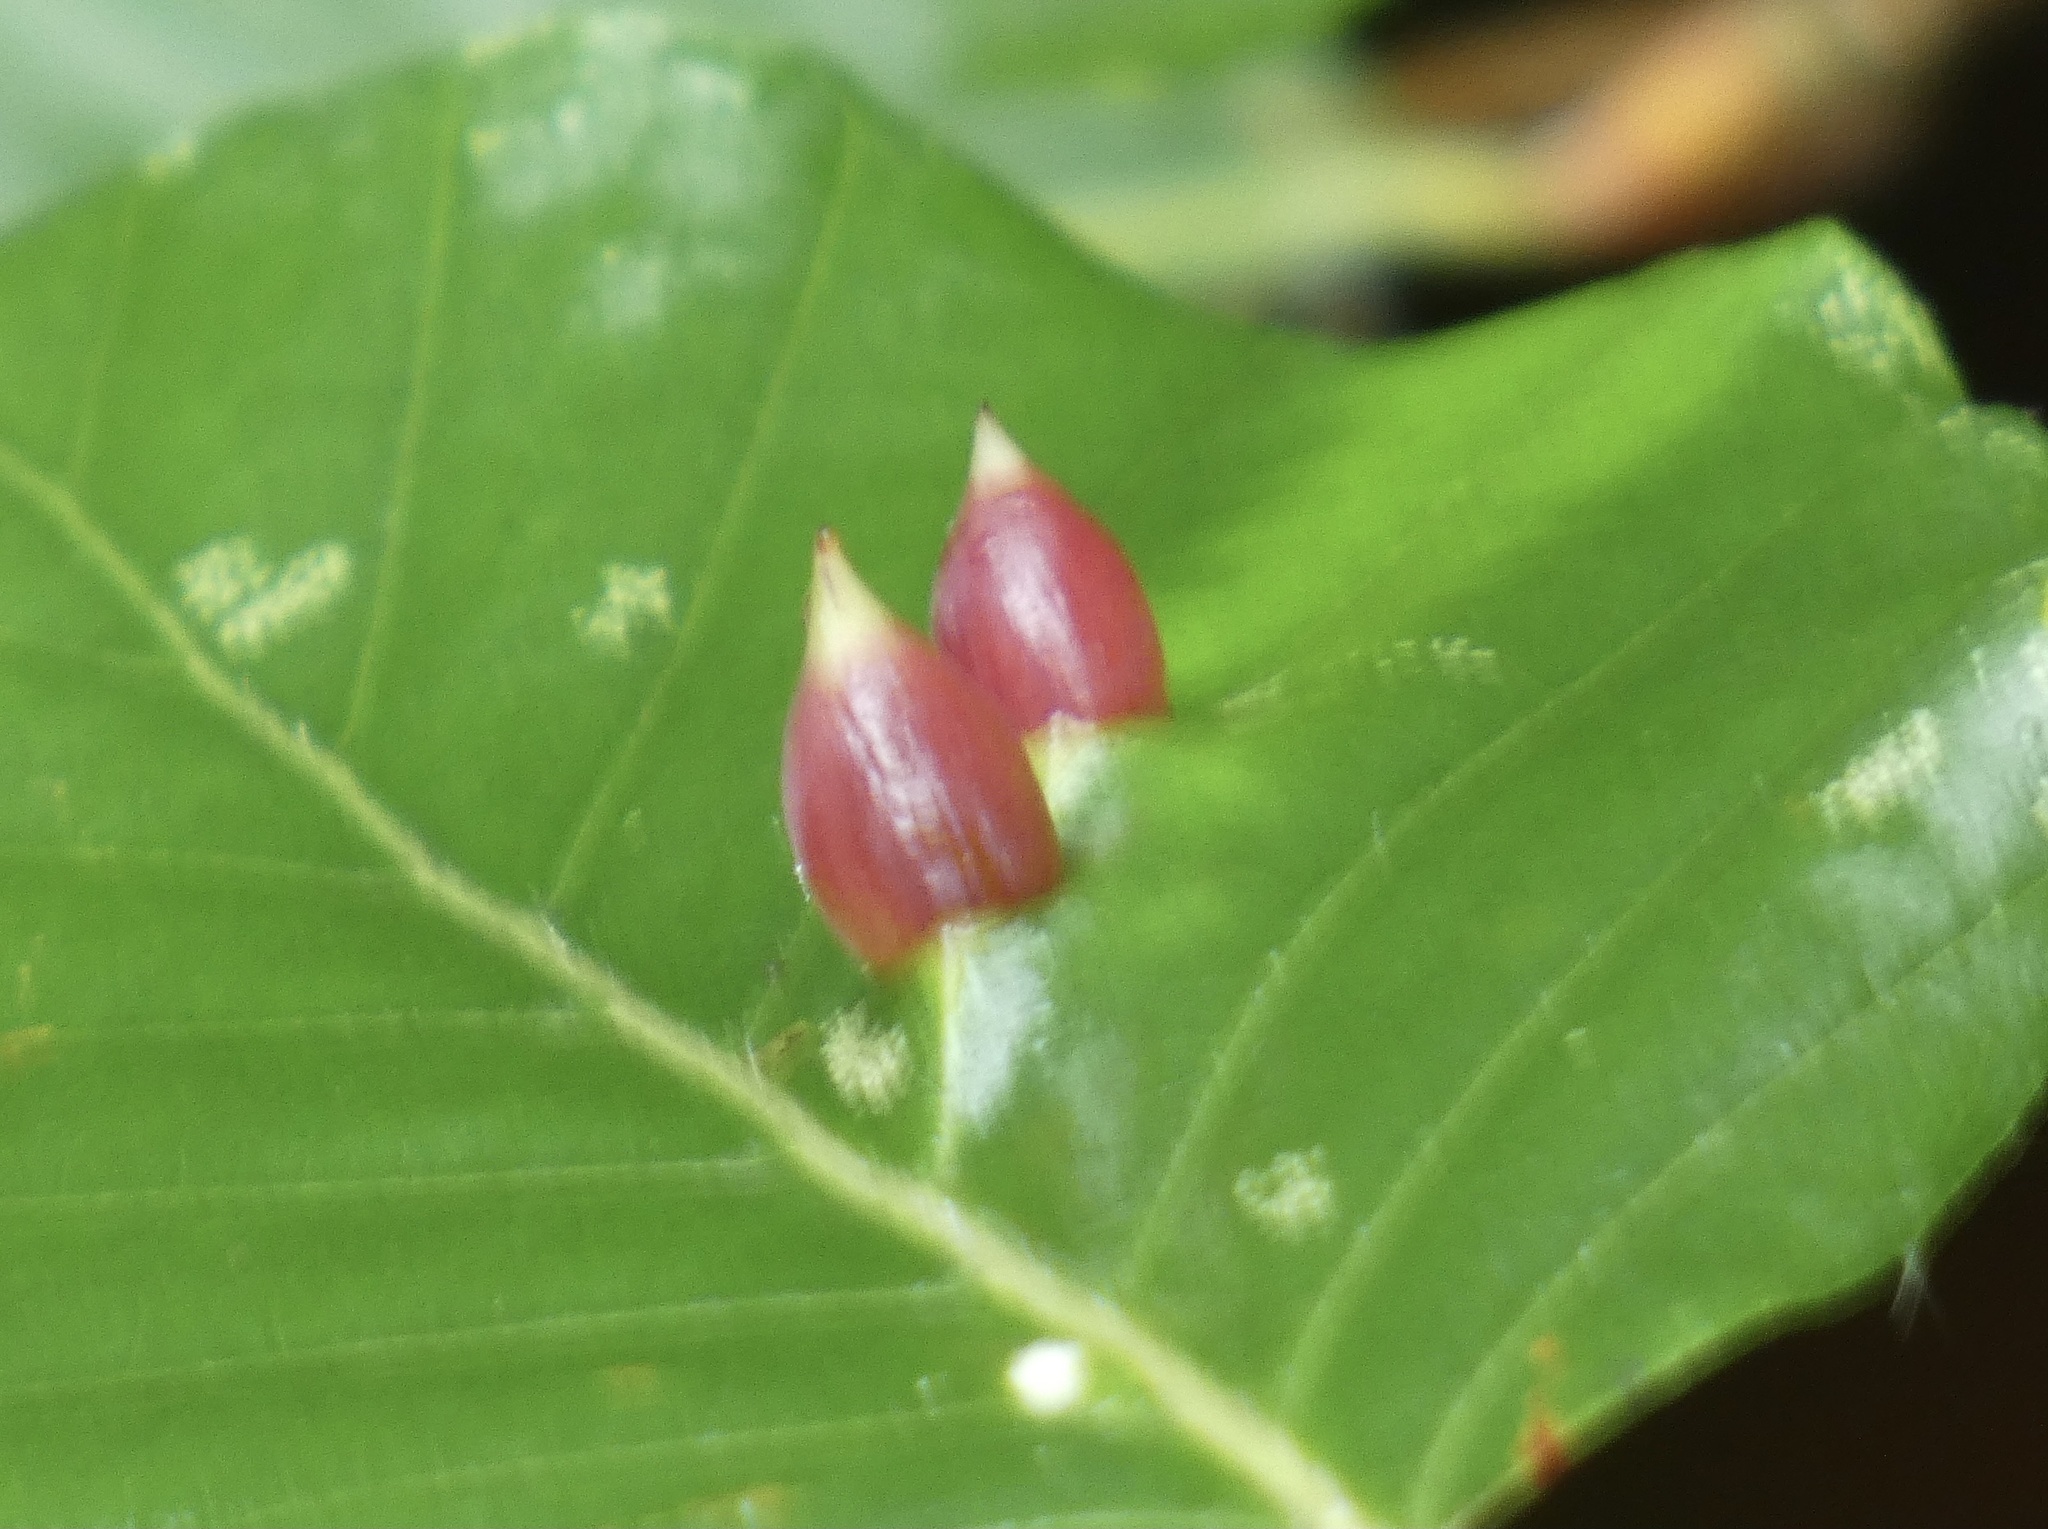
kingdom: Animalia
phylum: Arthropoda
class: Insecta
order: Diptera
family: Cecidomyiidae
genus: Mikiola
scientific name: Mikiola fagi
